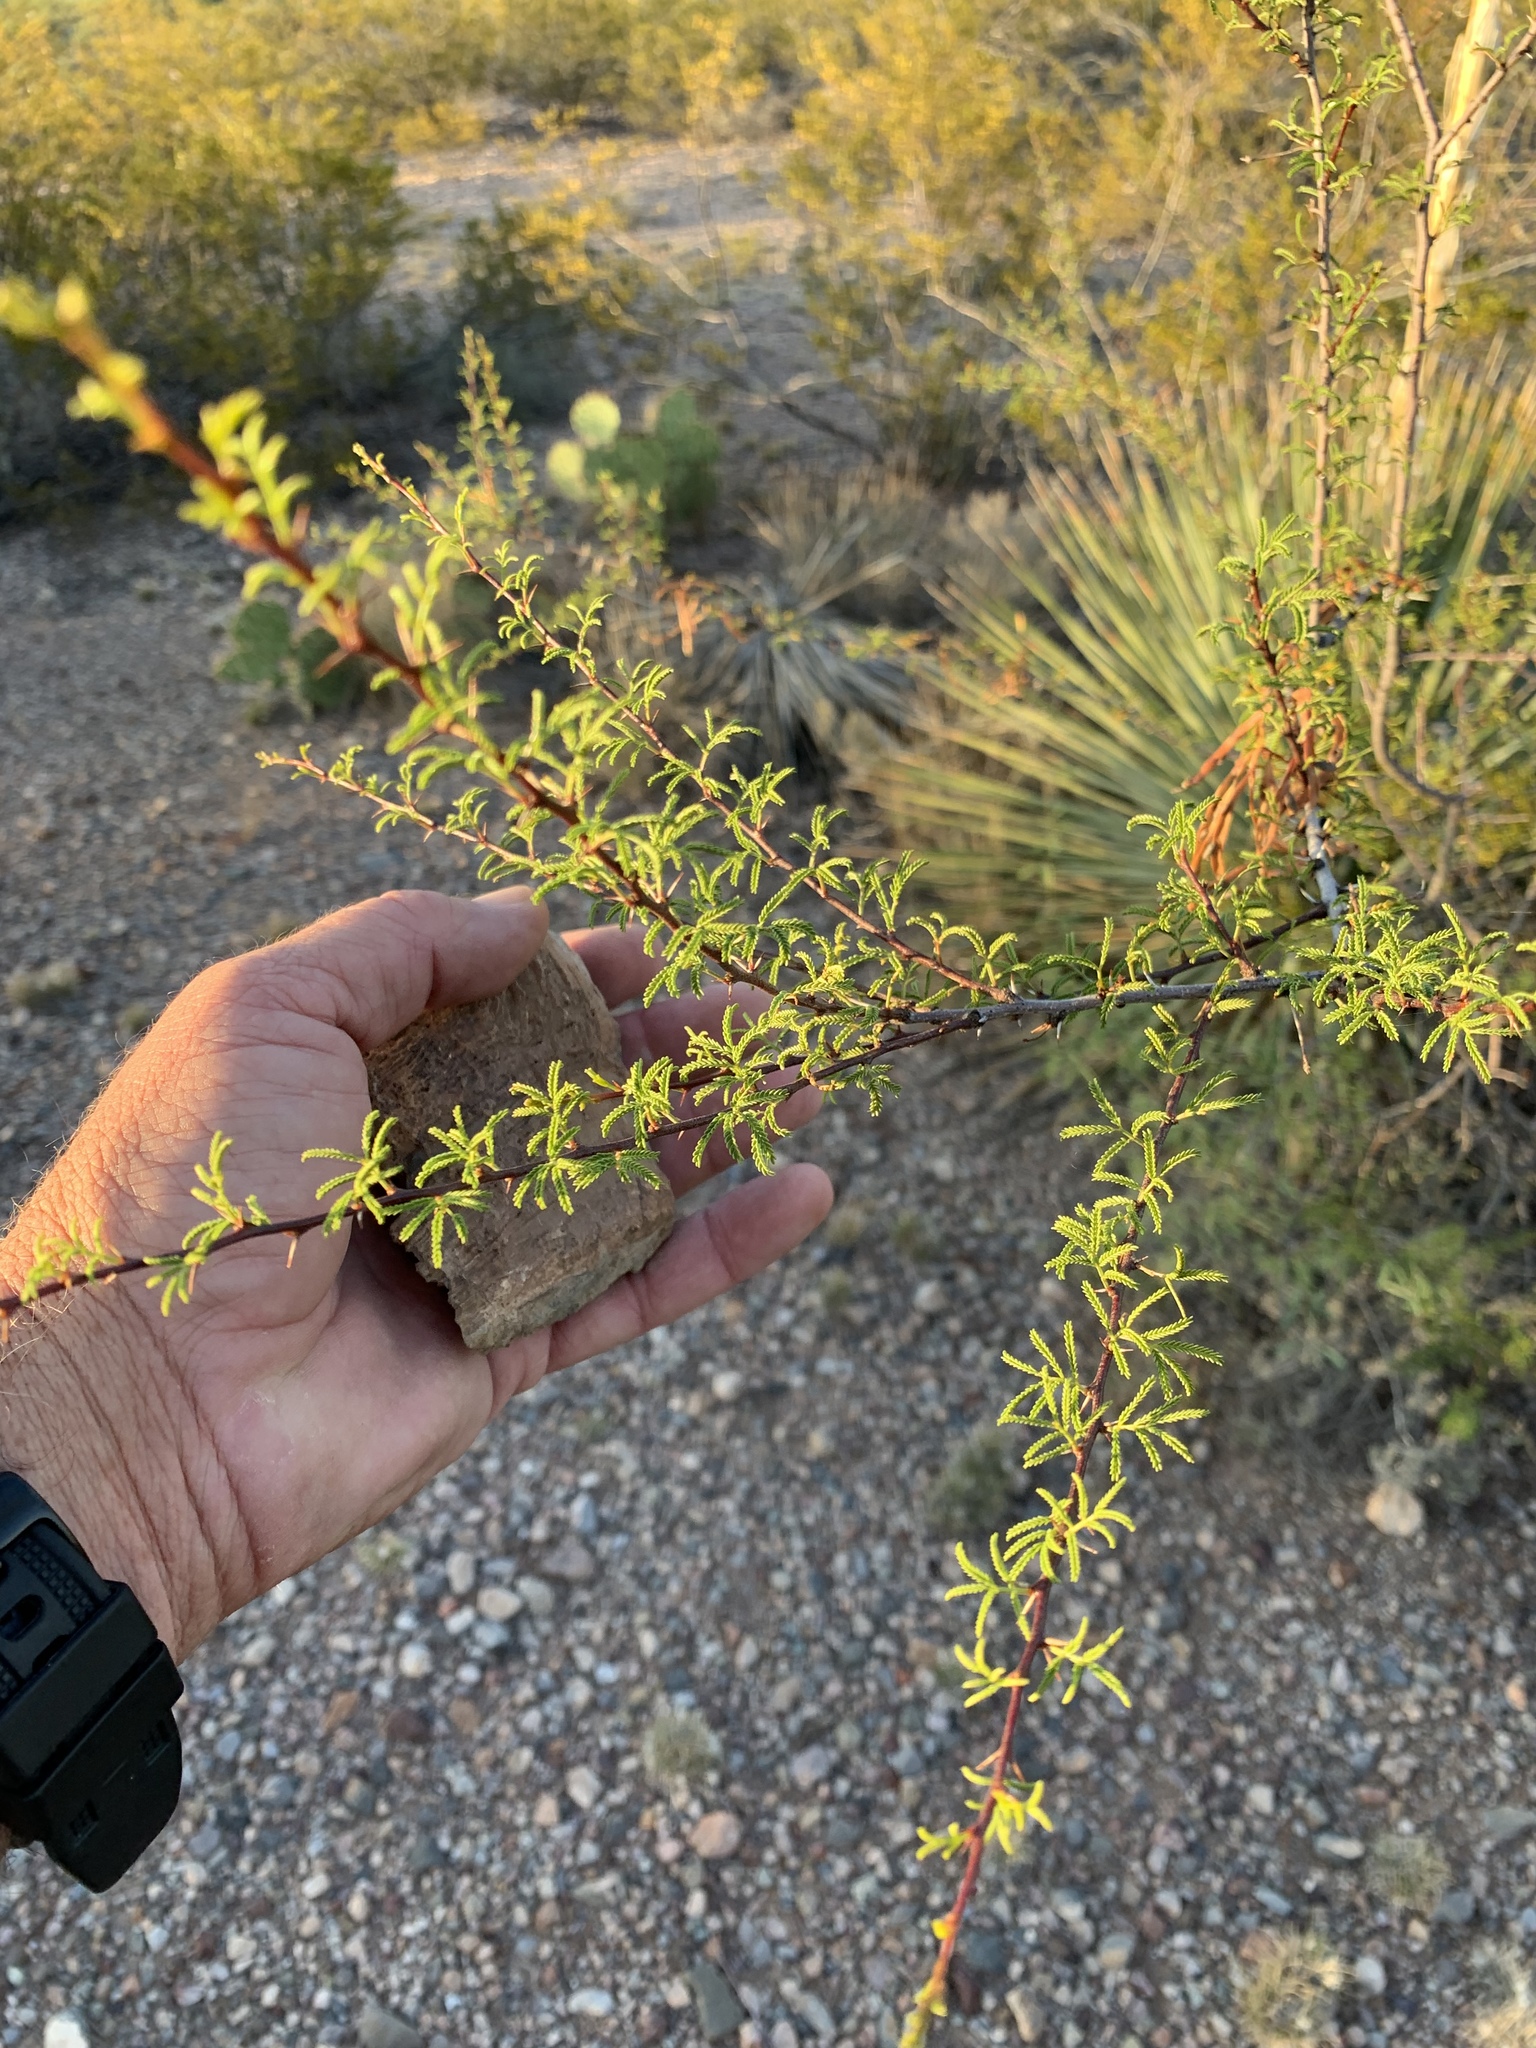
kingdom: Plantae
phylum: Tracheophyta
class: Magnoliopsida
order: Fabales
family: Fabaceae
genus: Vachellia
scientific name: Vachellia constricta
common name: Mescat acacia
